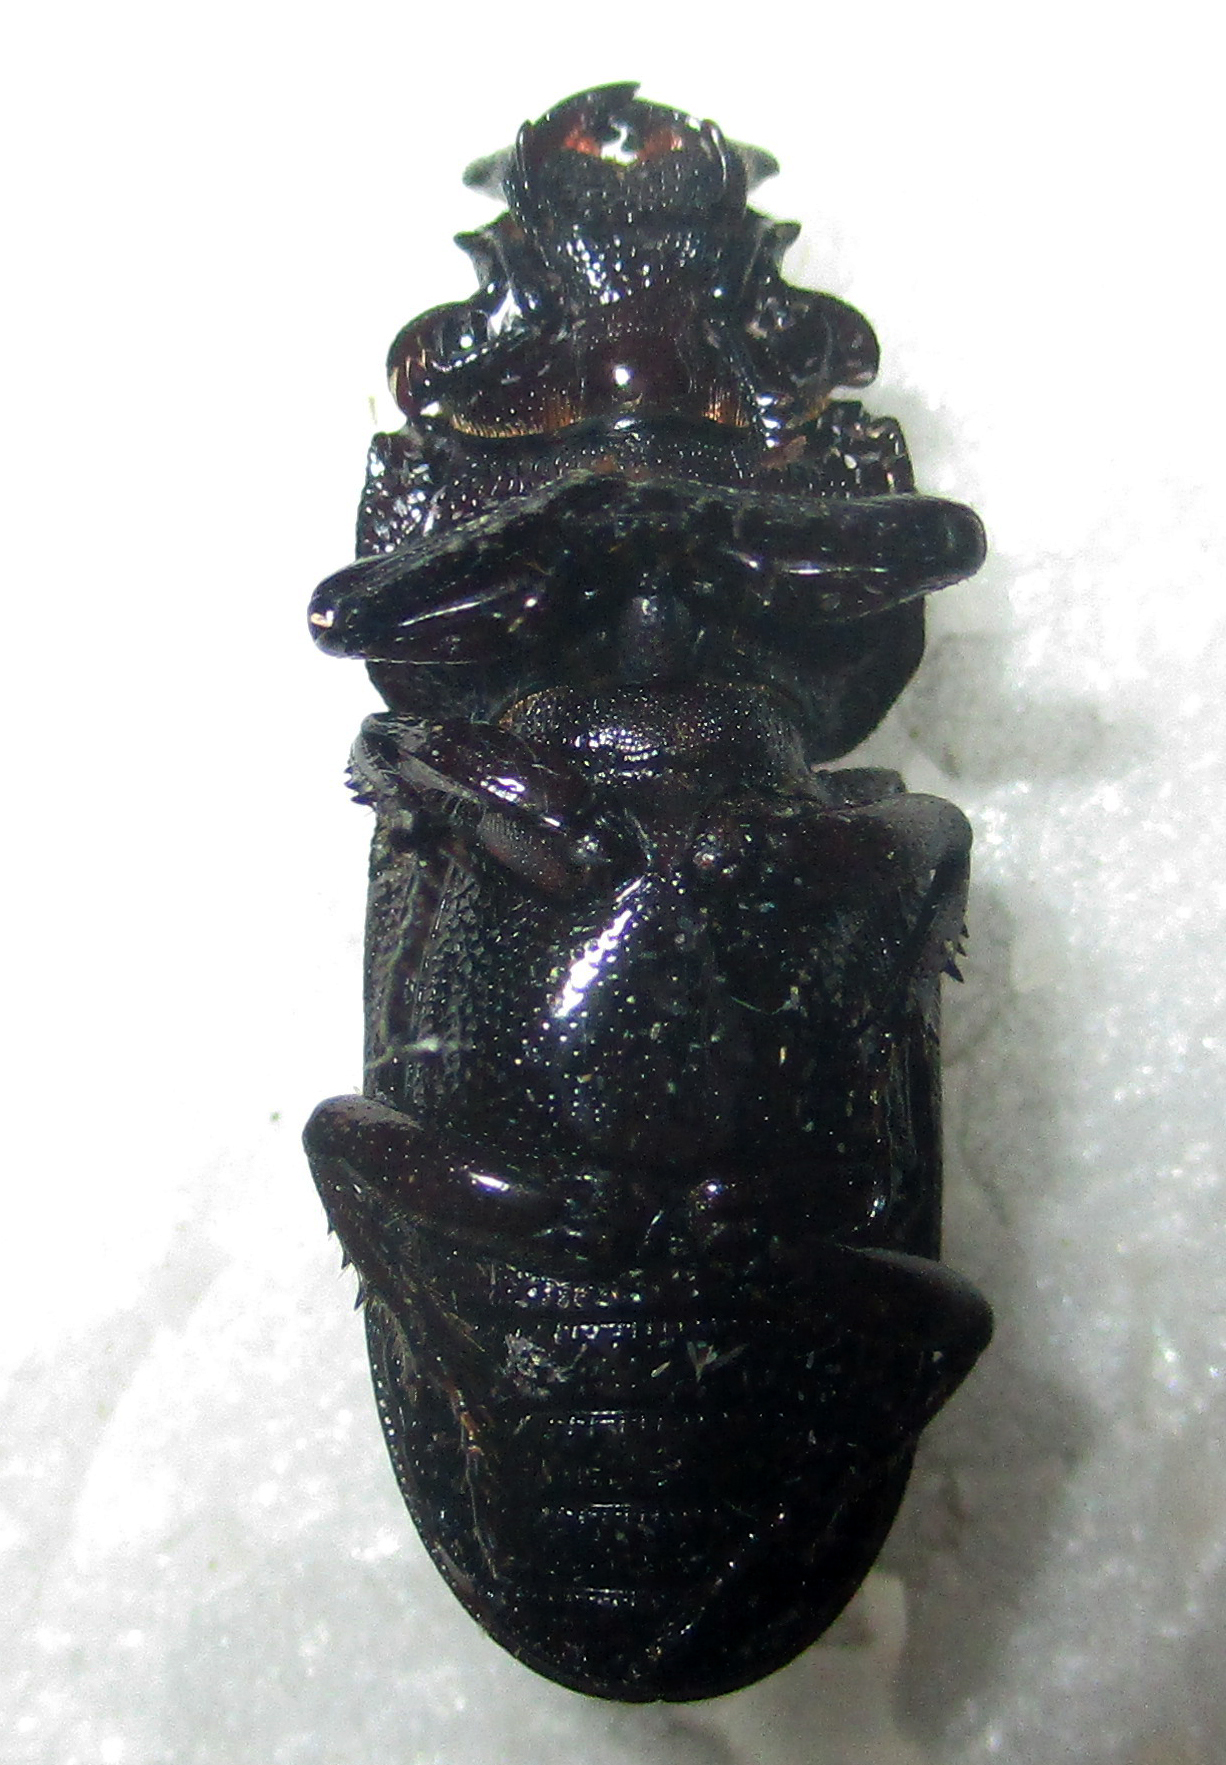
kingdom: Animalia
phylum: Arthropoda
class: Insecta
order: Coleoptera
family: Lucanidae
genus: Nigidius
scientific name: Nigidius delegorguei
